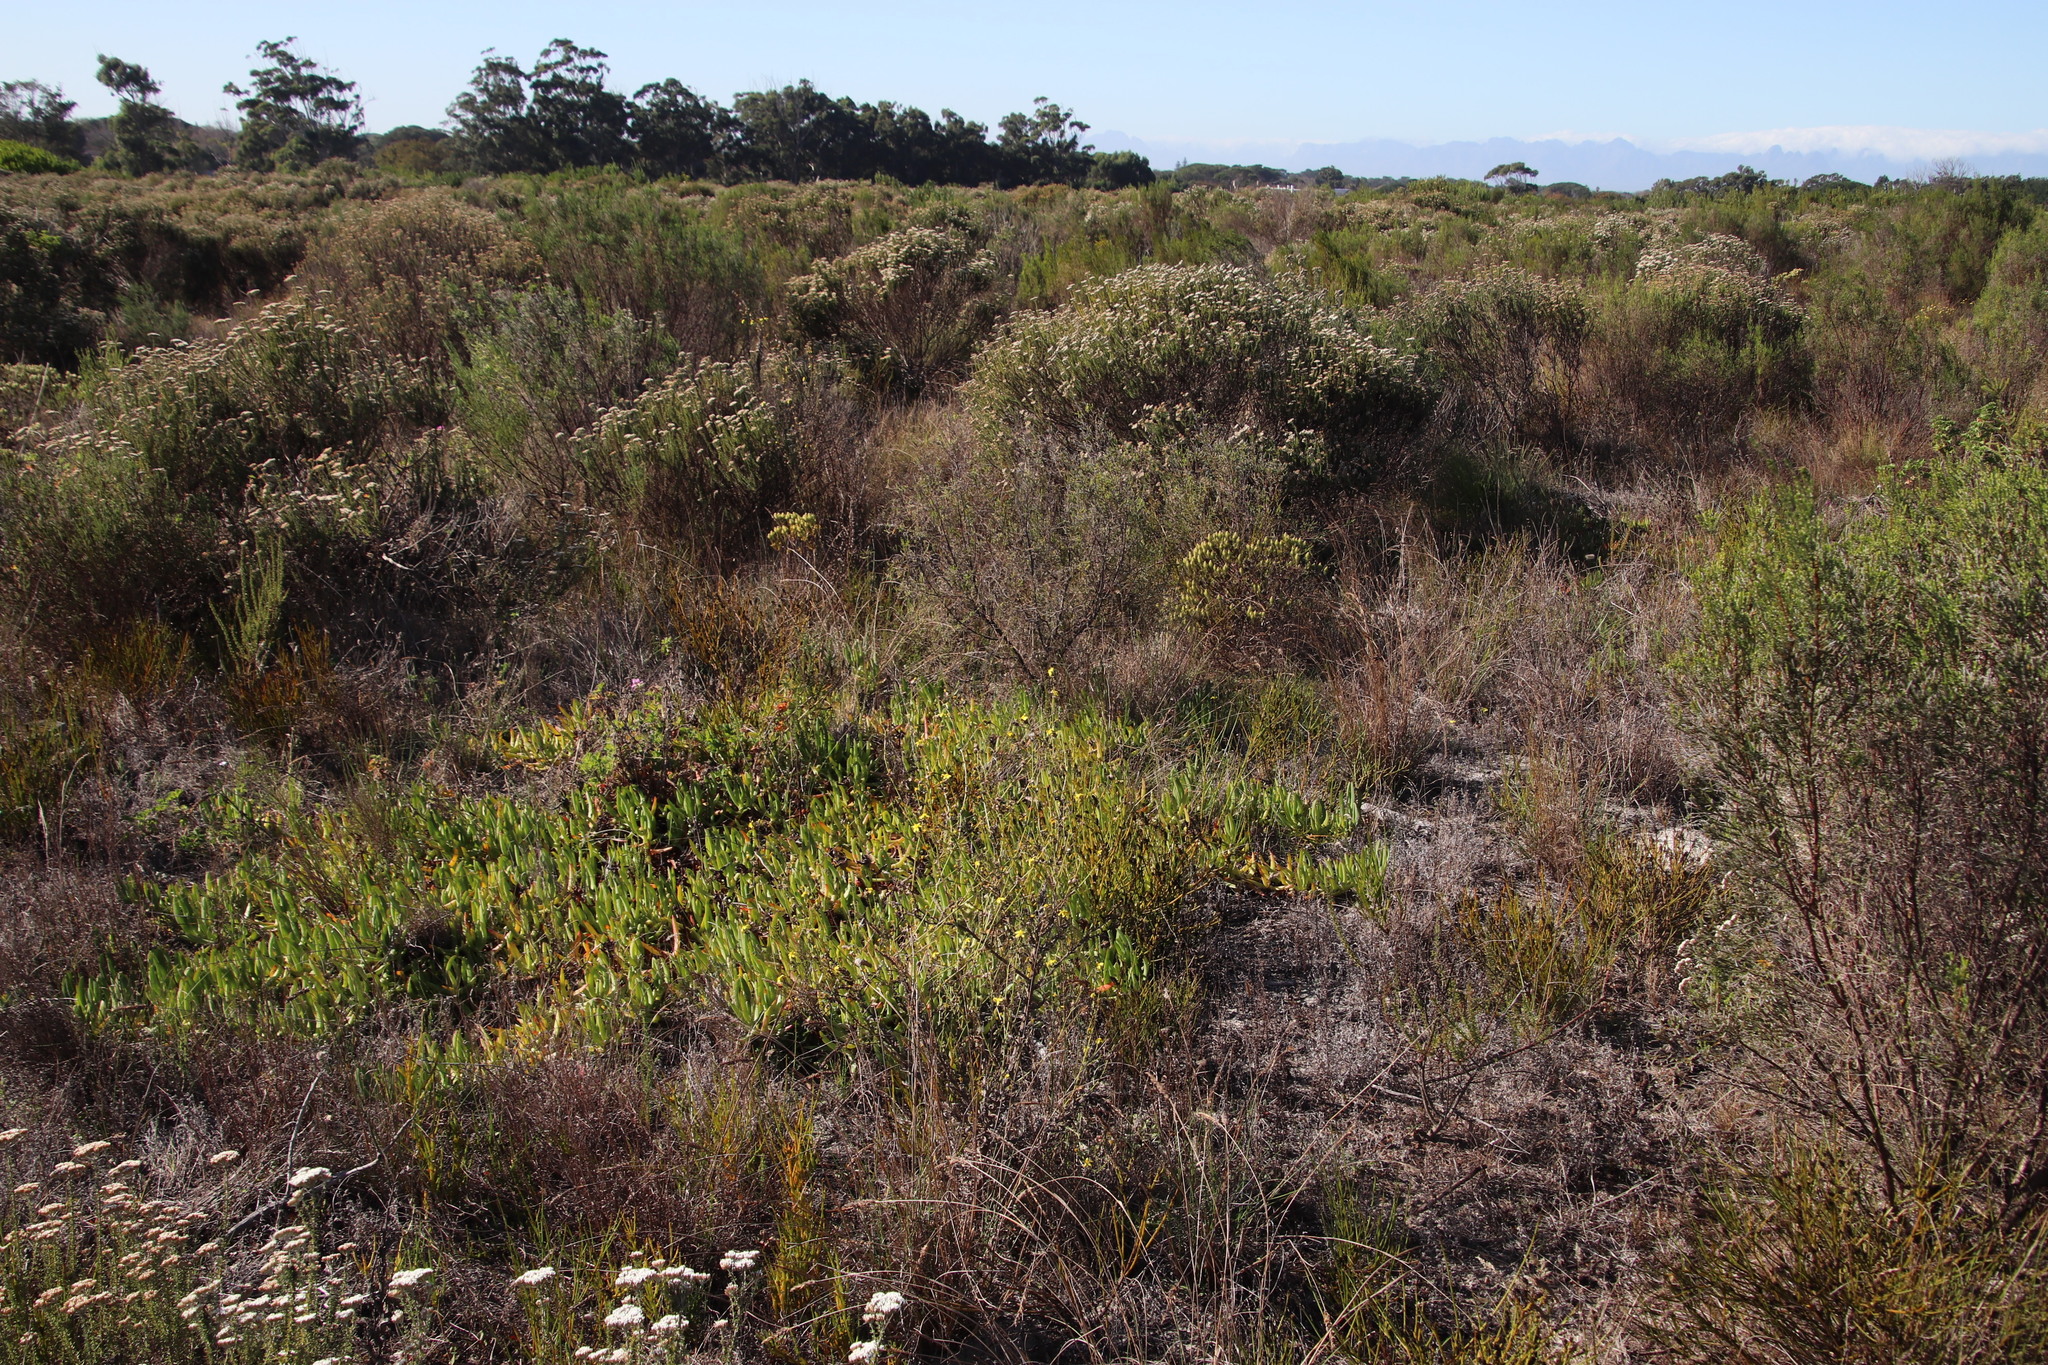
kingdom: Plantae
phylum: Tracheophyta
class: Magnoliopsida
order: Caryophyllales
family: Aizoaceae
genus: Carpobrotus
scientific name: Carpobrotus edulis
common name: Hottentot-fig
